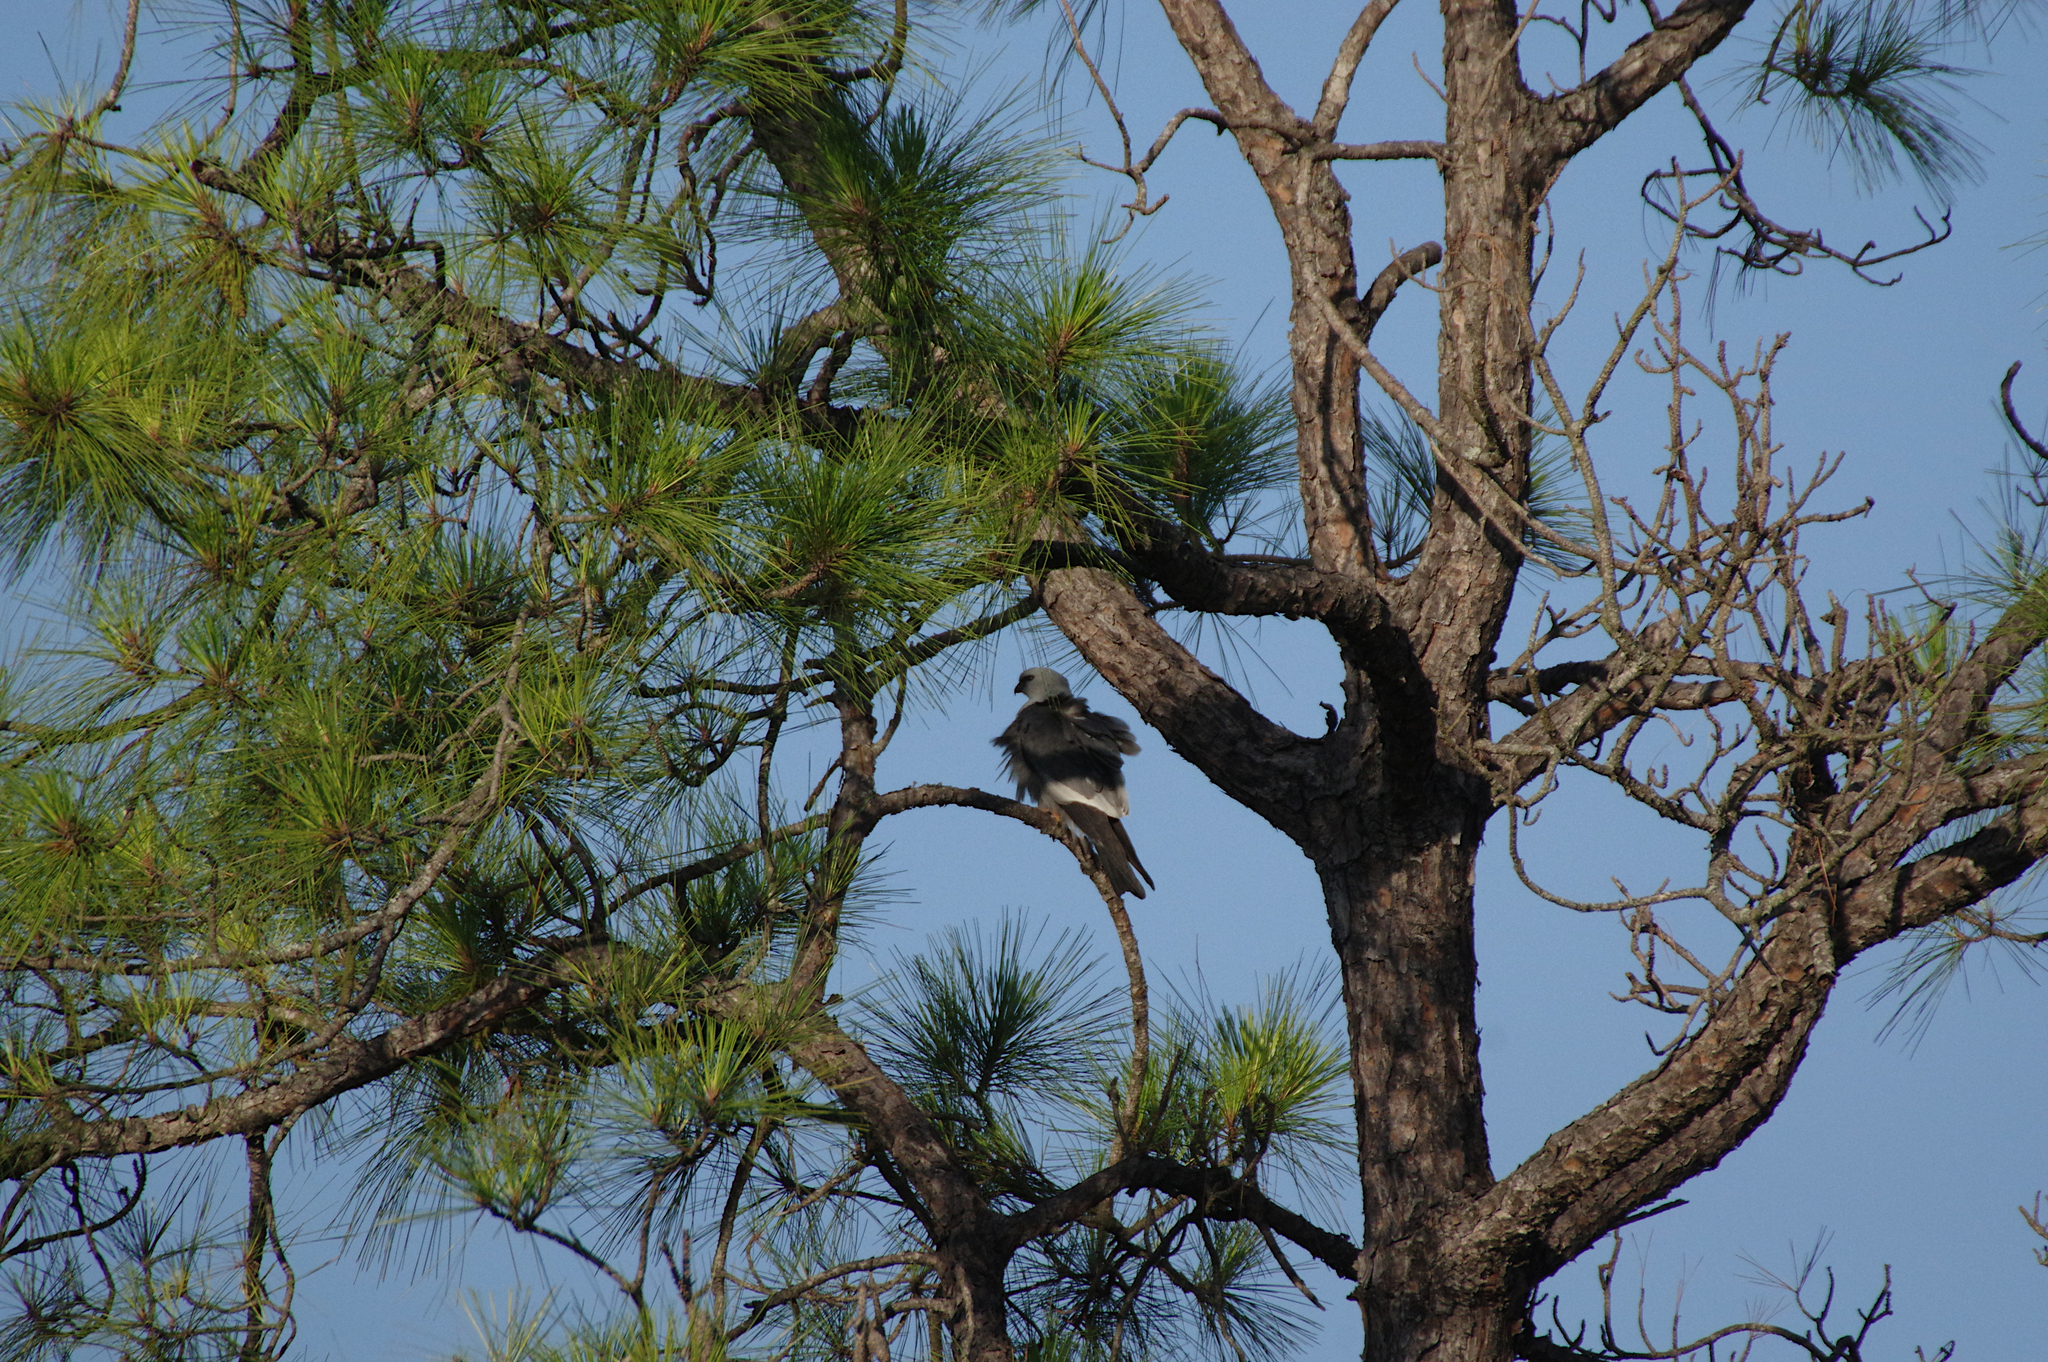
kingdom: Animalia
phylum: Chordata
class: Aves
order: Accipitriformes
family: Accipitridae
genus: Ictinia
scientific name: Ictinia mississippiensis
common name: Mississippi kite
